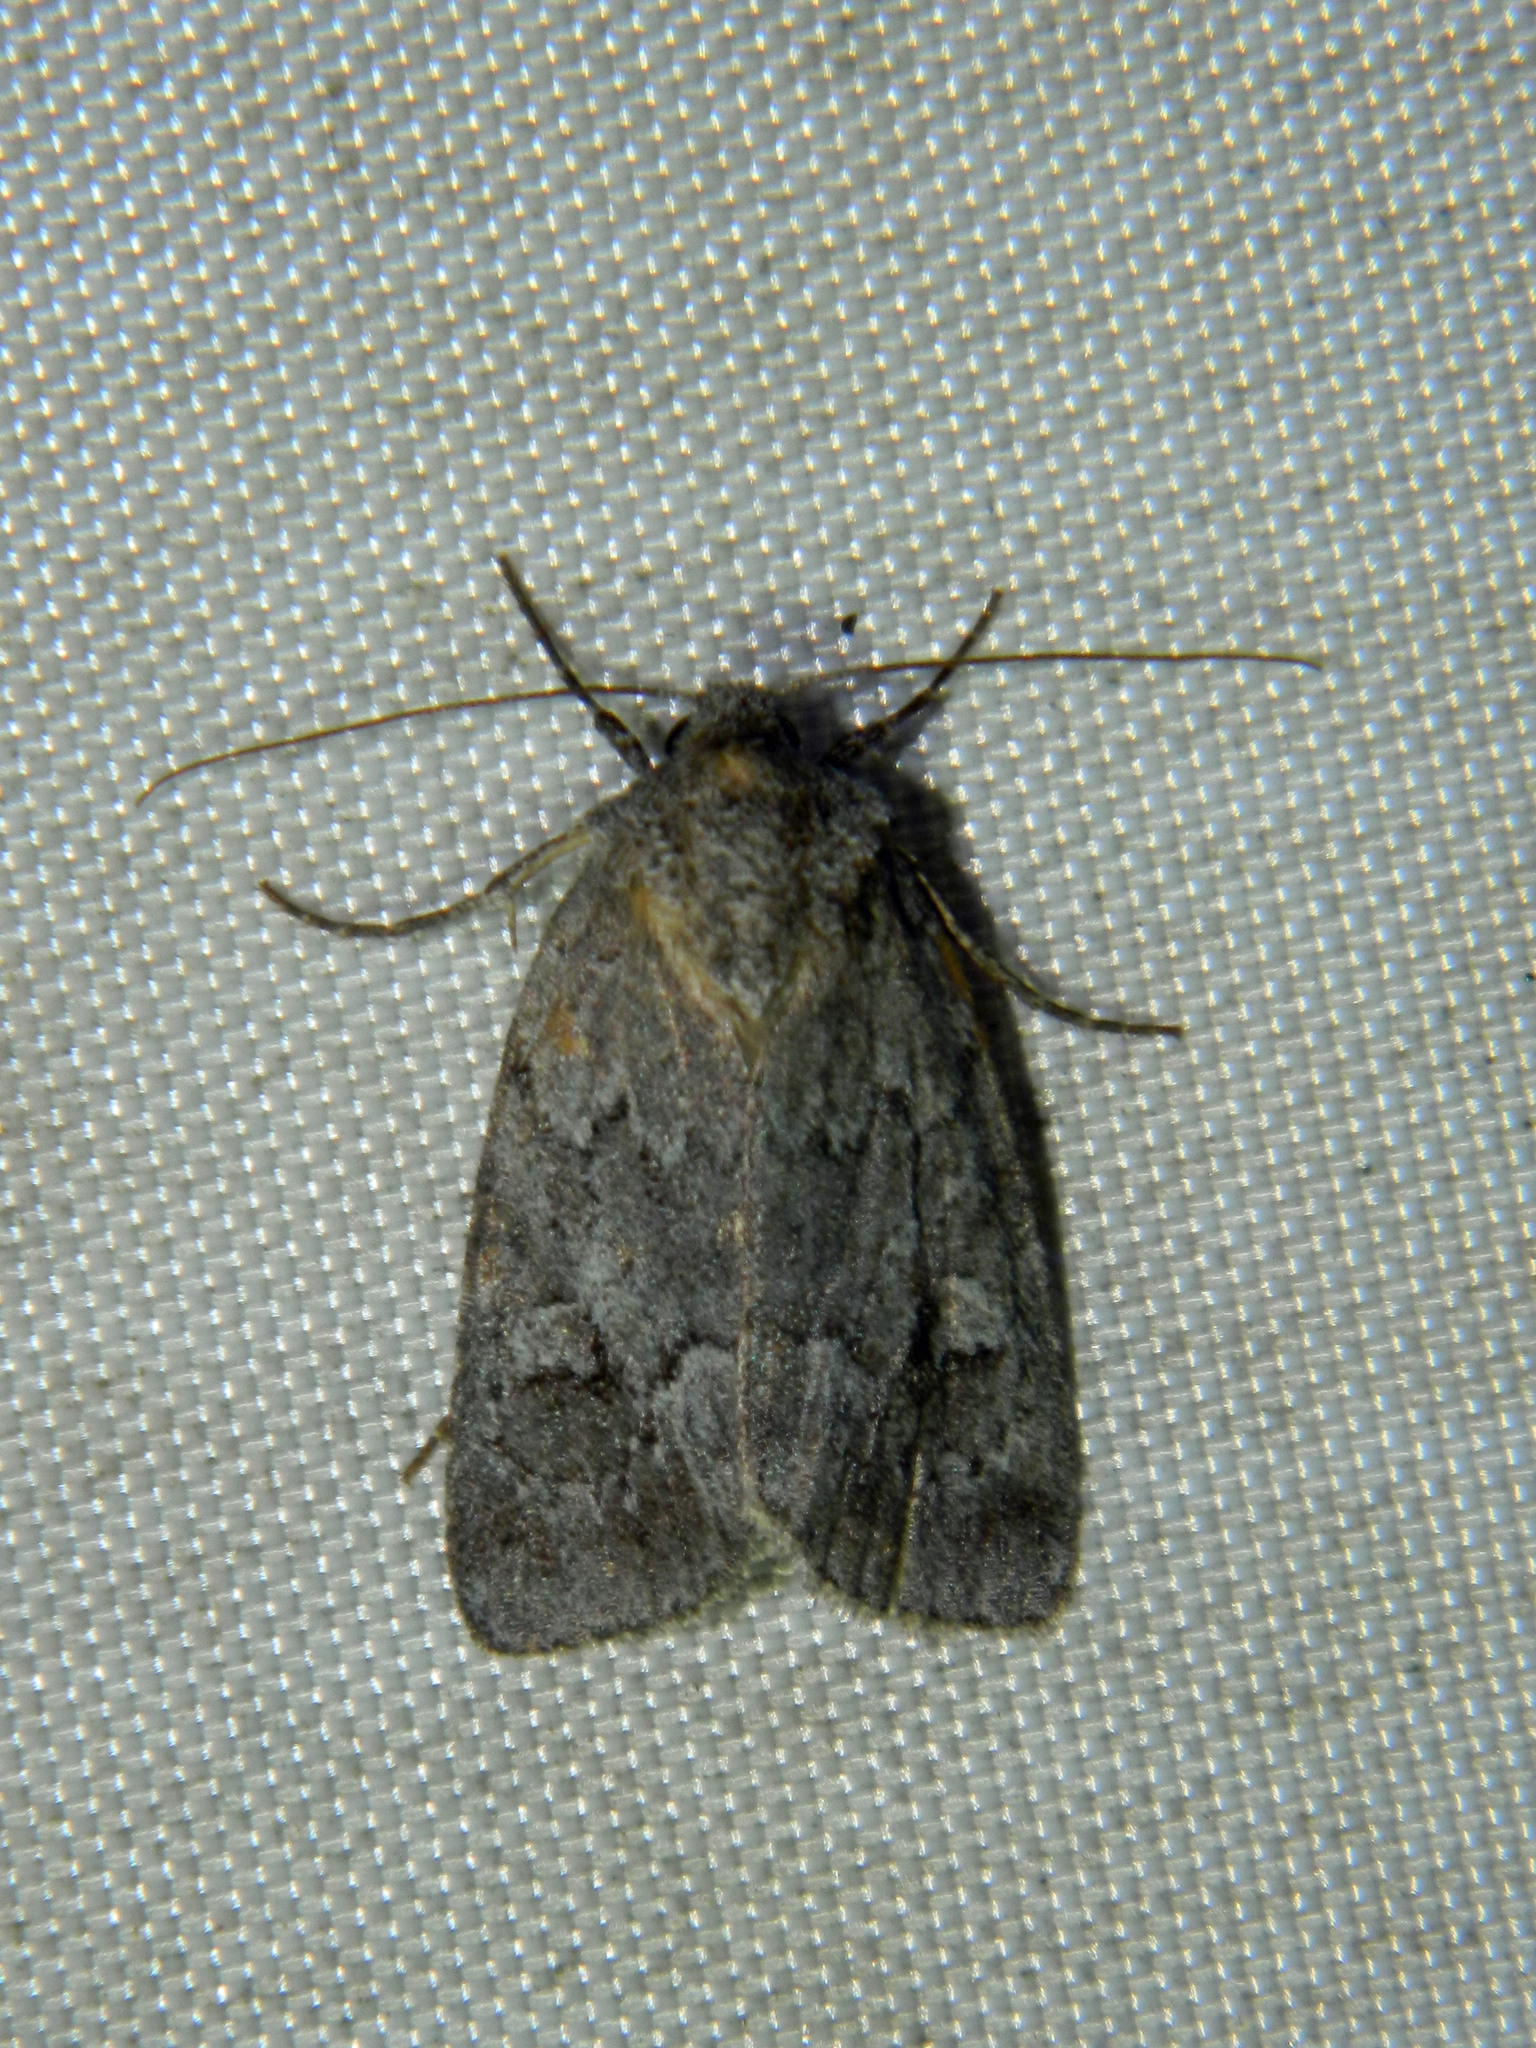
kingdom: Animalia
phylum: Arthropoda
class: Insecta
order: Lepidoptera
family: Noctuidae
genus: Sympistis
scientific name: Sympistis dentata
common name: Blueberry sallow
